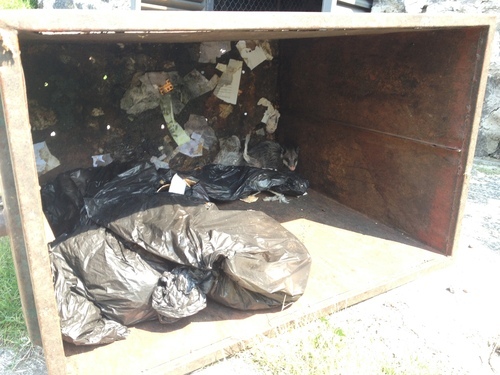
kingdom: Animalia
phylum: Chordata
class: Mammalia
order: Didelphimorphia
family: Didelphidae
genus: Didelphis
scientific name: Didelphis virginiana
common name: Virginia opossum
